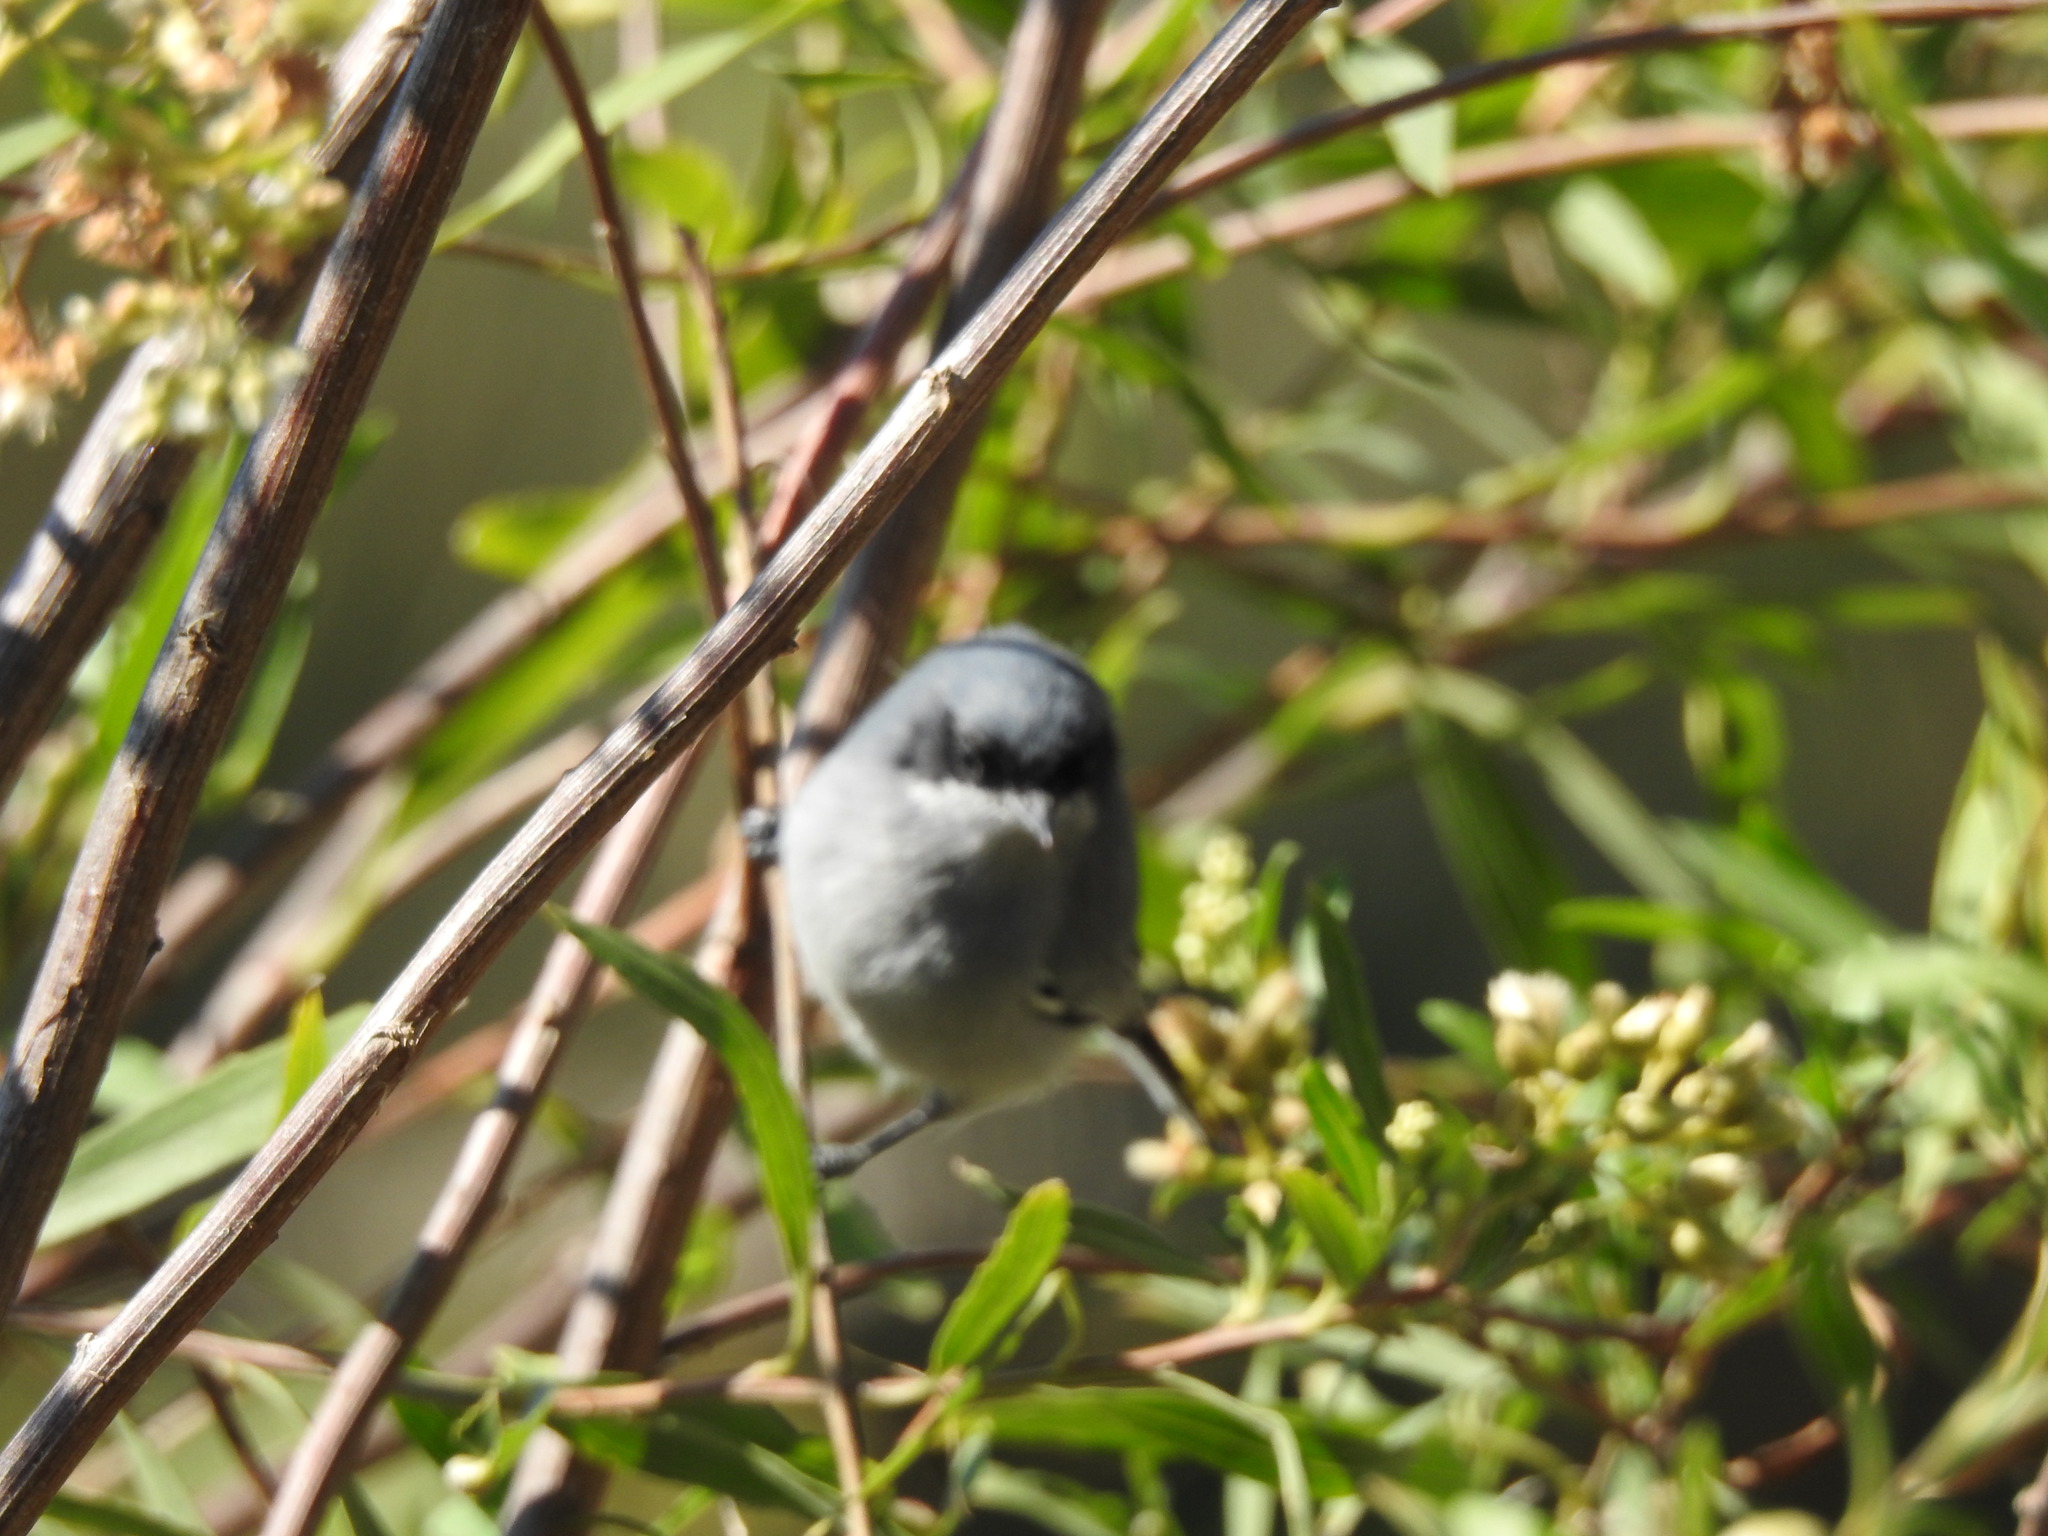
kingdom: Animalia
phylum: Chordata
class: Aves
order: Passeriformes
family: Polioptilidae
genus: Polioptila
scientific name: Polioptila dumicola
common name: Masked gnatcatcher
